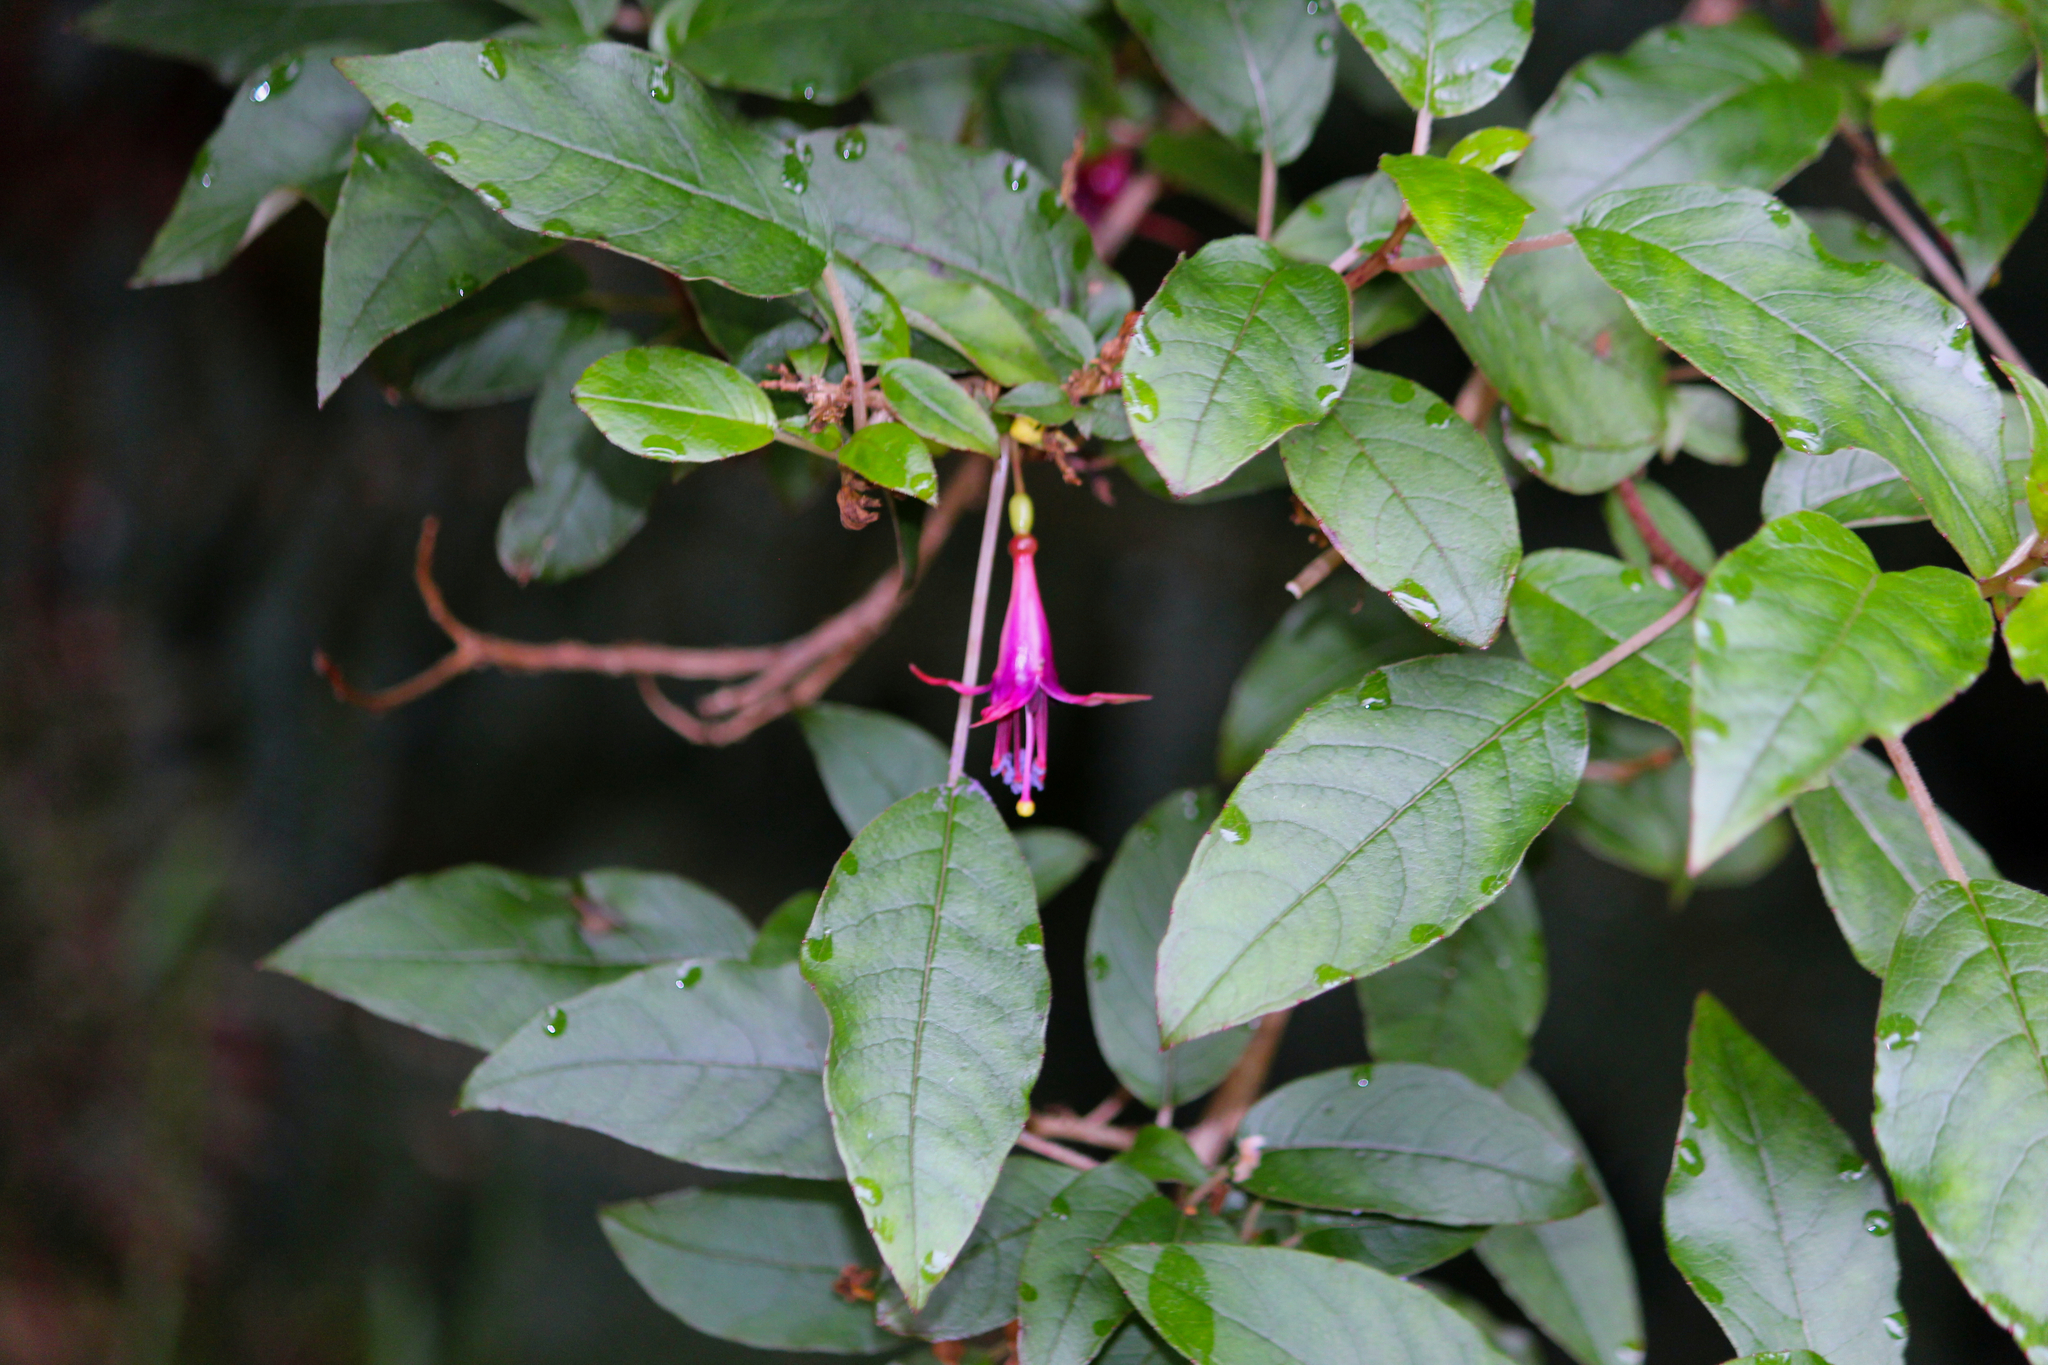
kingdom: Plantae
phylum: Tracheophyta
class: Magnoliopsida
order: Myrtales
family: Onagraceae
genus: Fuchsia
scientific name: Fuchsia excorticata
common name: Tree fuchsia
